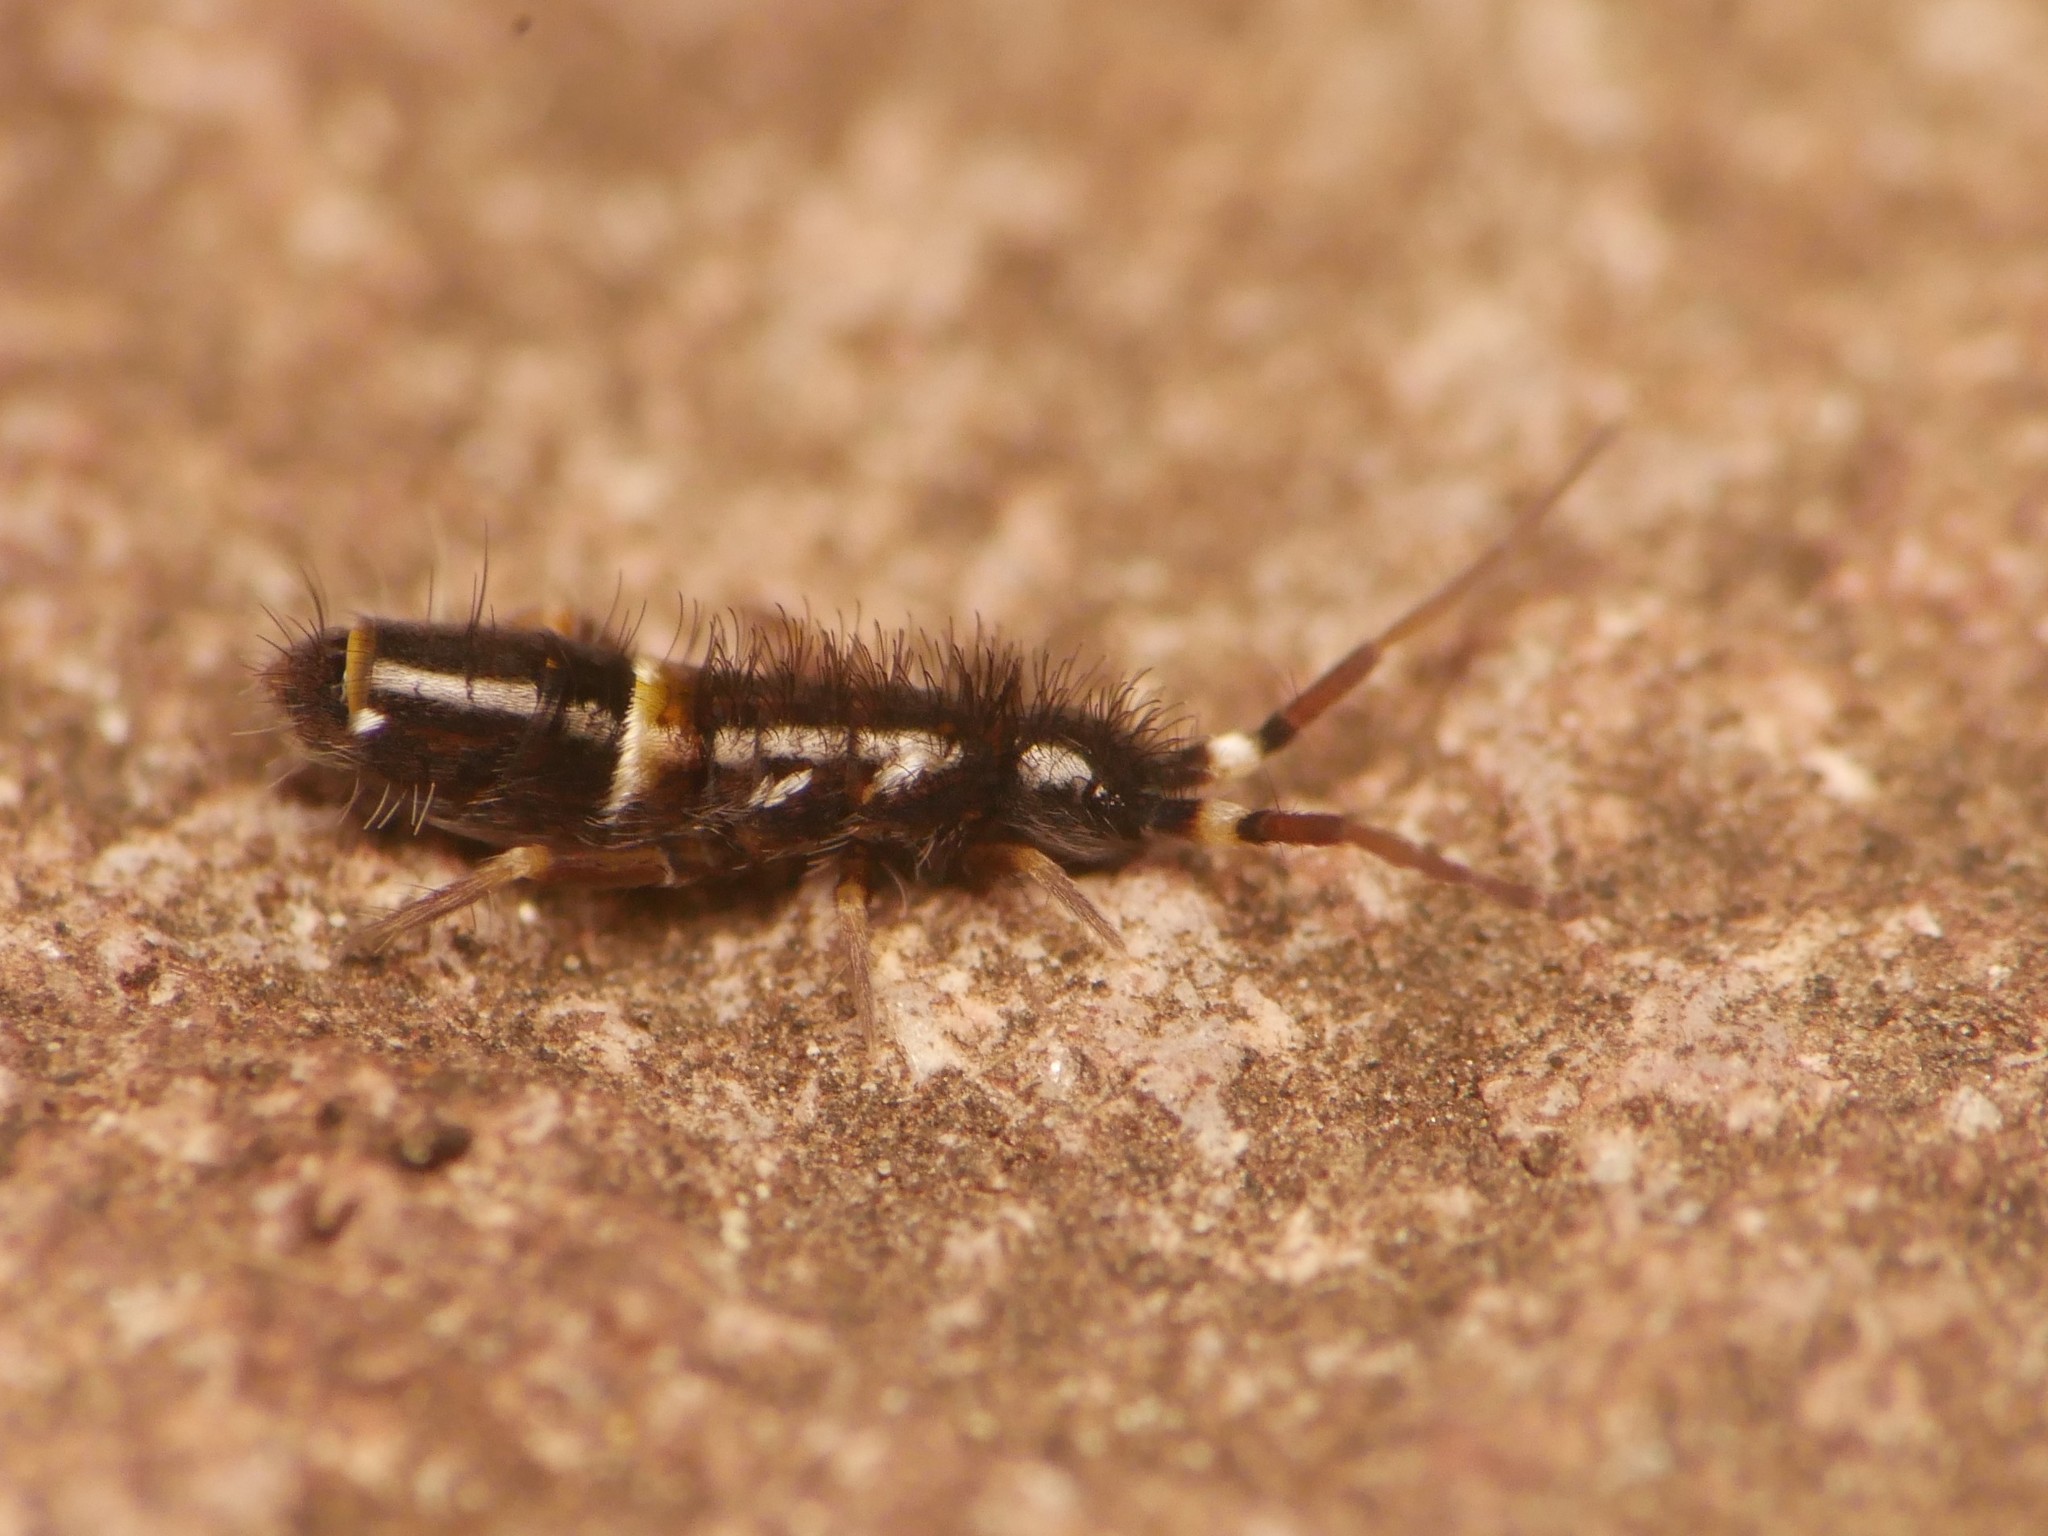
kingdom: Animalia
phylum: Arthropoda
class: Collembola
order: Entomobryomorpha
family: Orchesellidae
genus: Orchesella
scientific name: Orchesella cincta
